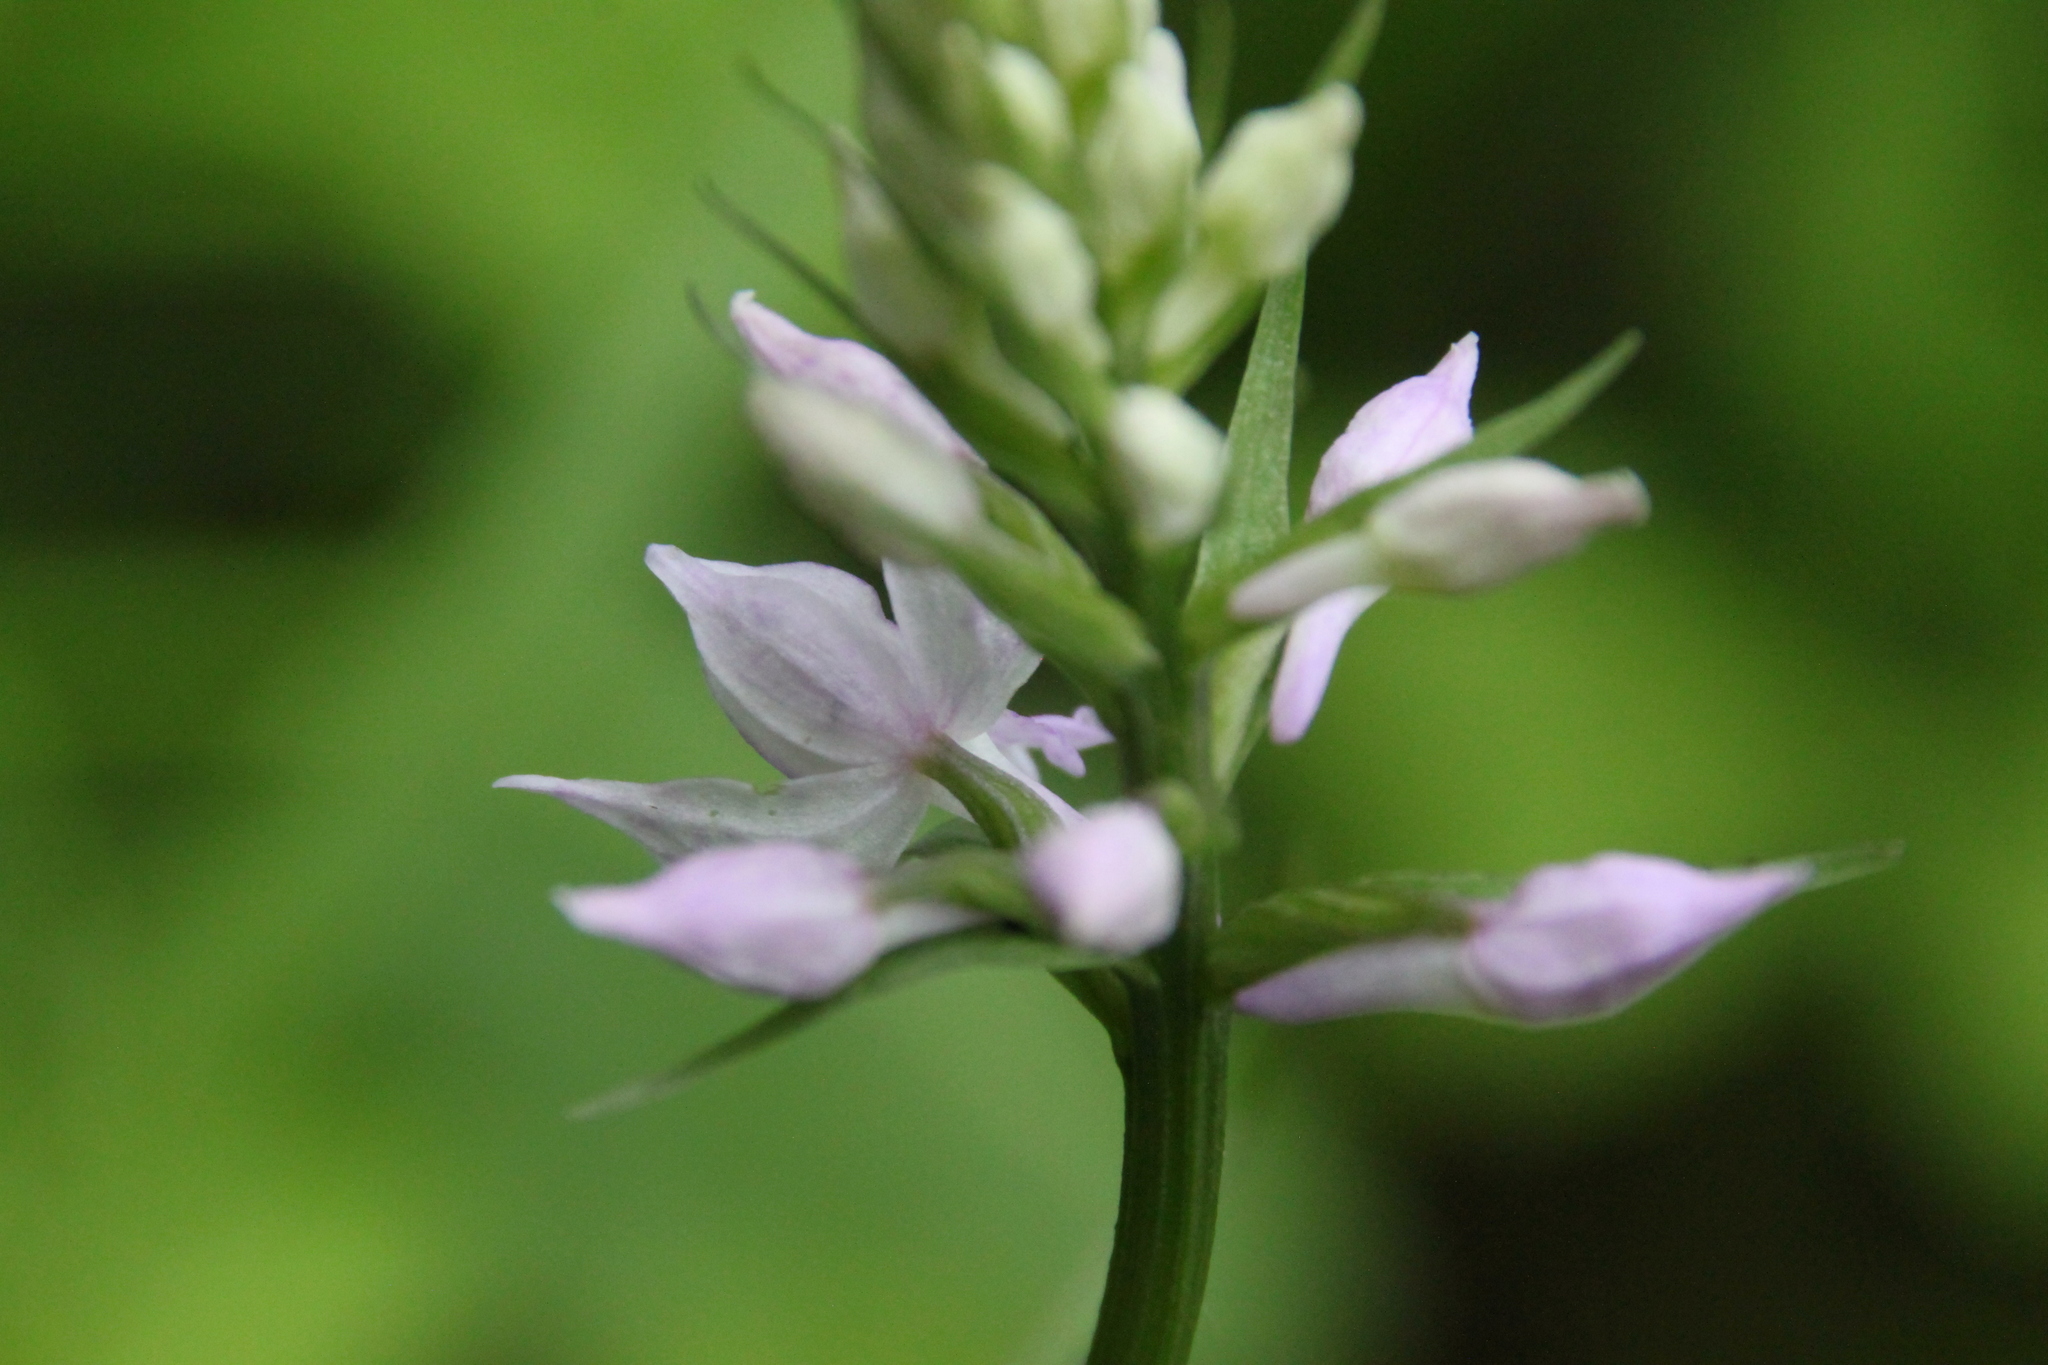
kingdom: Plantae
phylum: Tracheophyta
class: Liliopsida
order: Asparagales
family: Orchidaceae
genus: Dactylorhiza
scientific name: Dactylorhiza maculata
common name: Heath spotted-orchid
